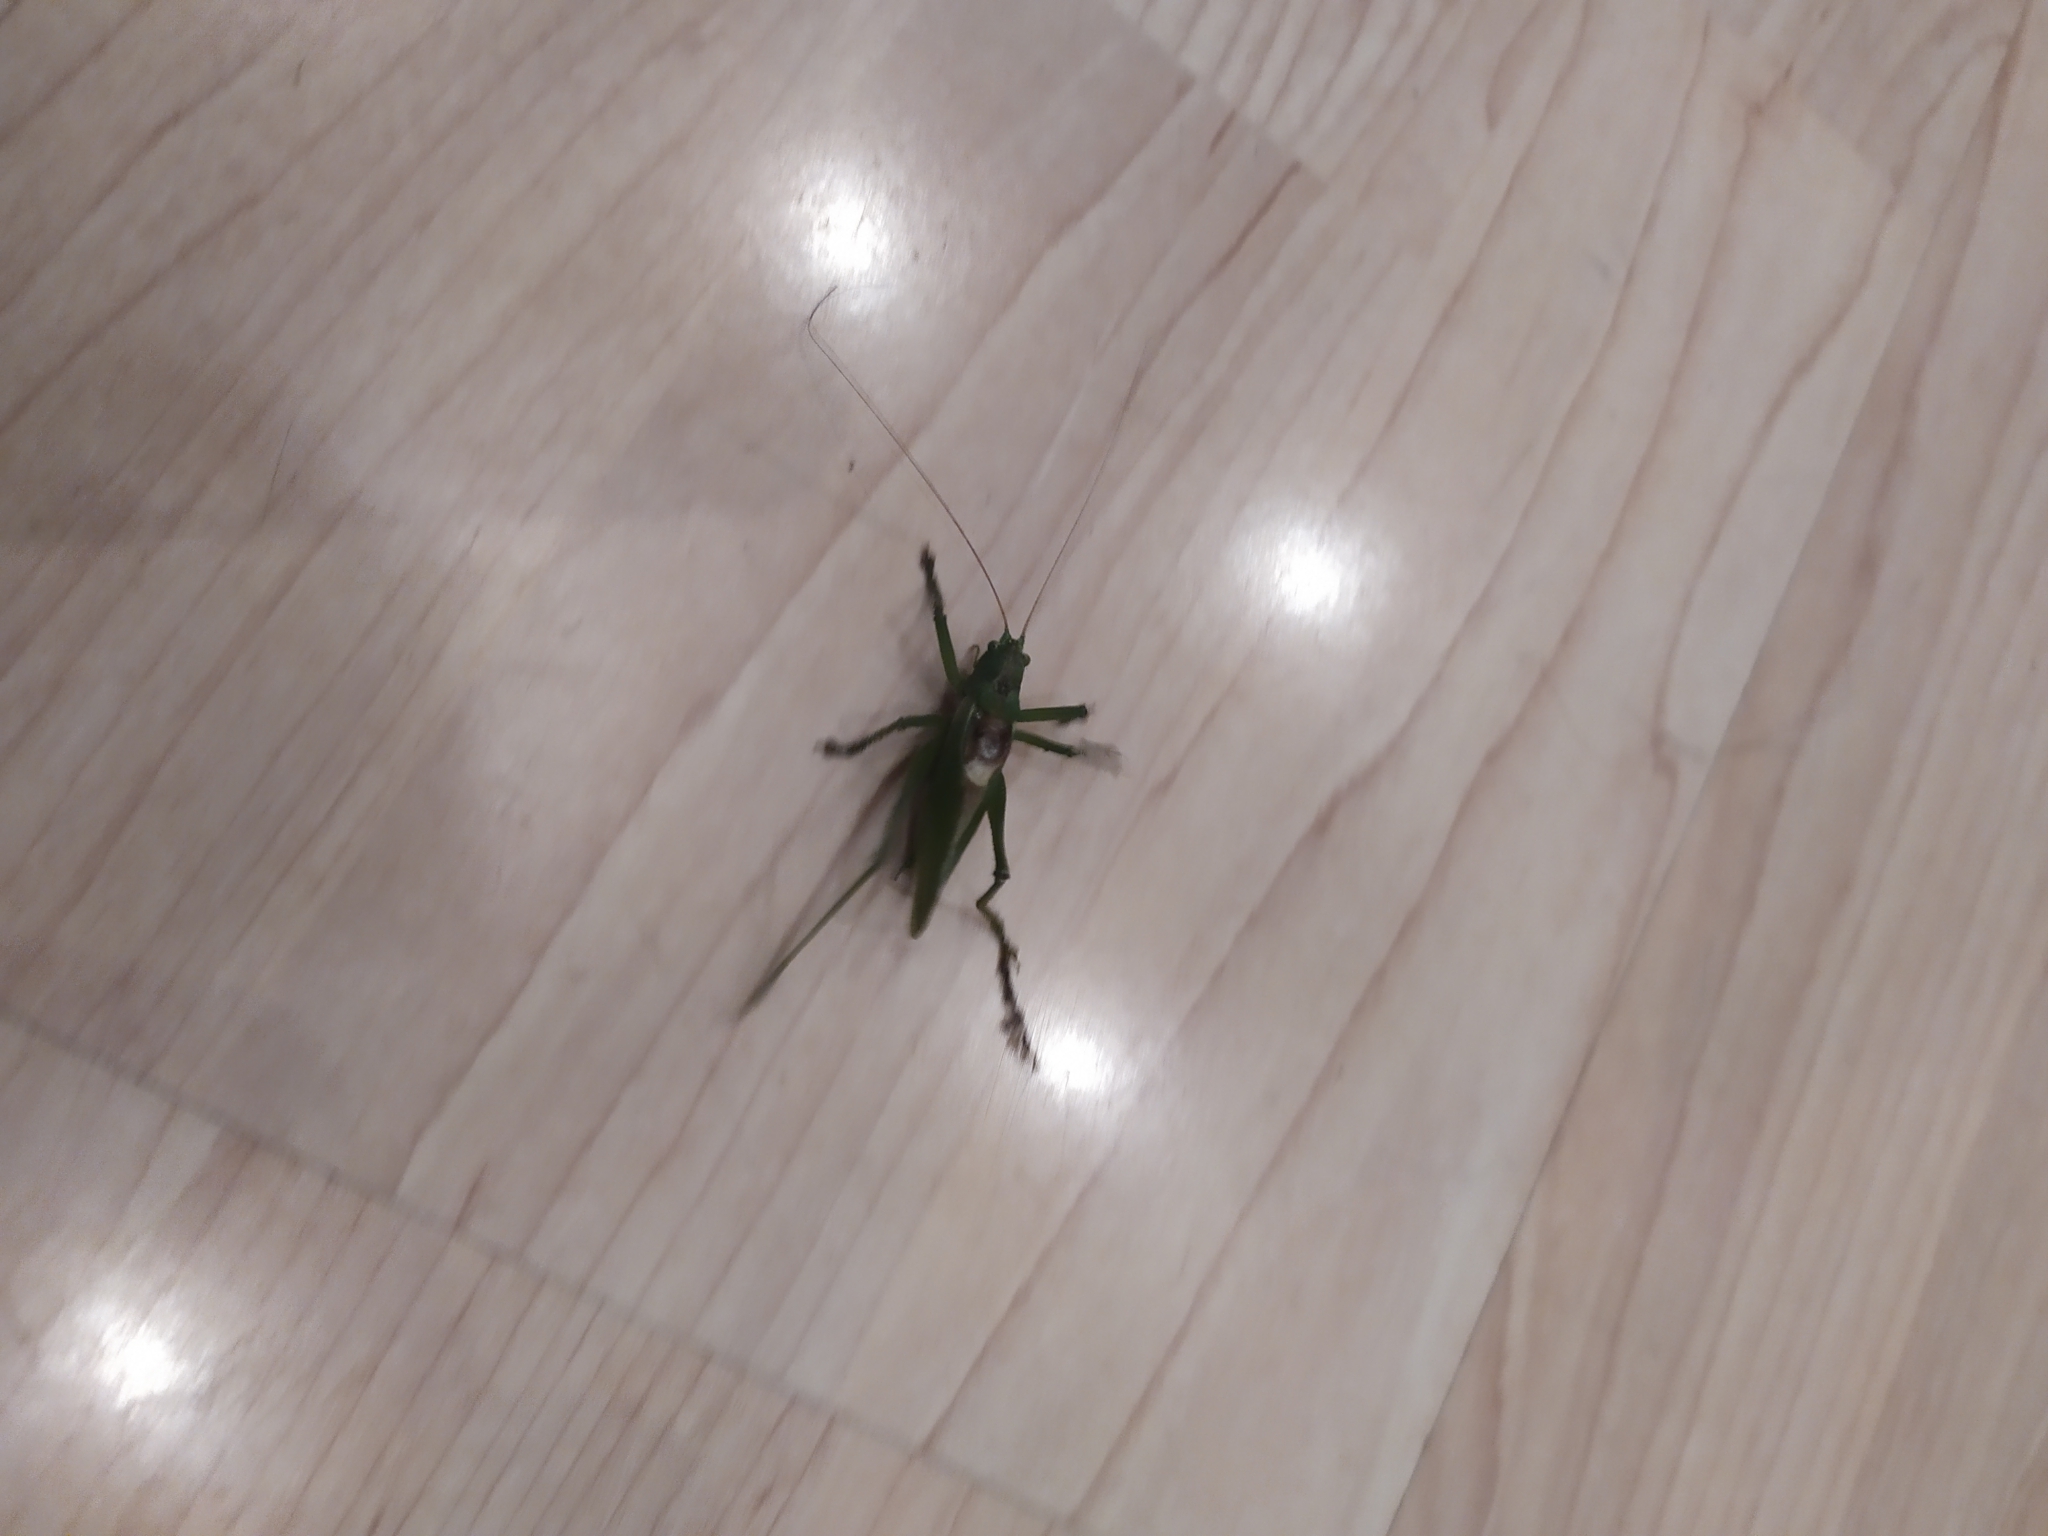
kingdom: Animalia
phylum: Arthropoda
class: Insecta
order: Orthoptera
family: Tettigoniidae
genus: Tettigonia
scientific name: Tettigonia cantans
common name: Upland green bush-cricket
